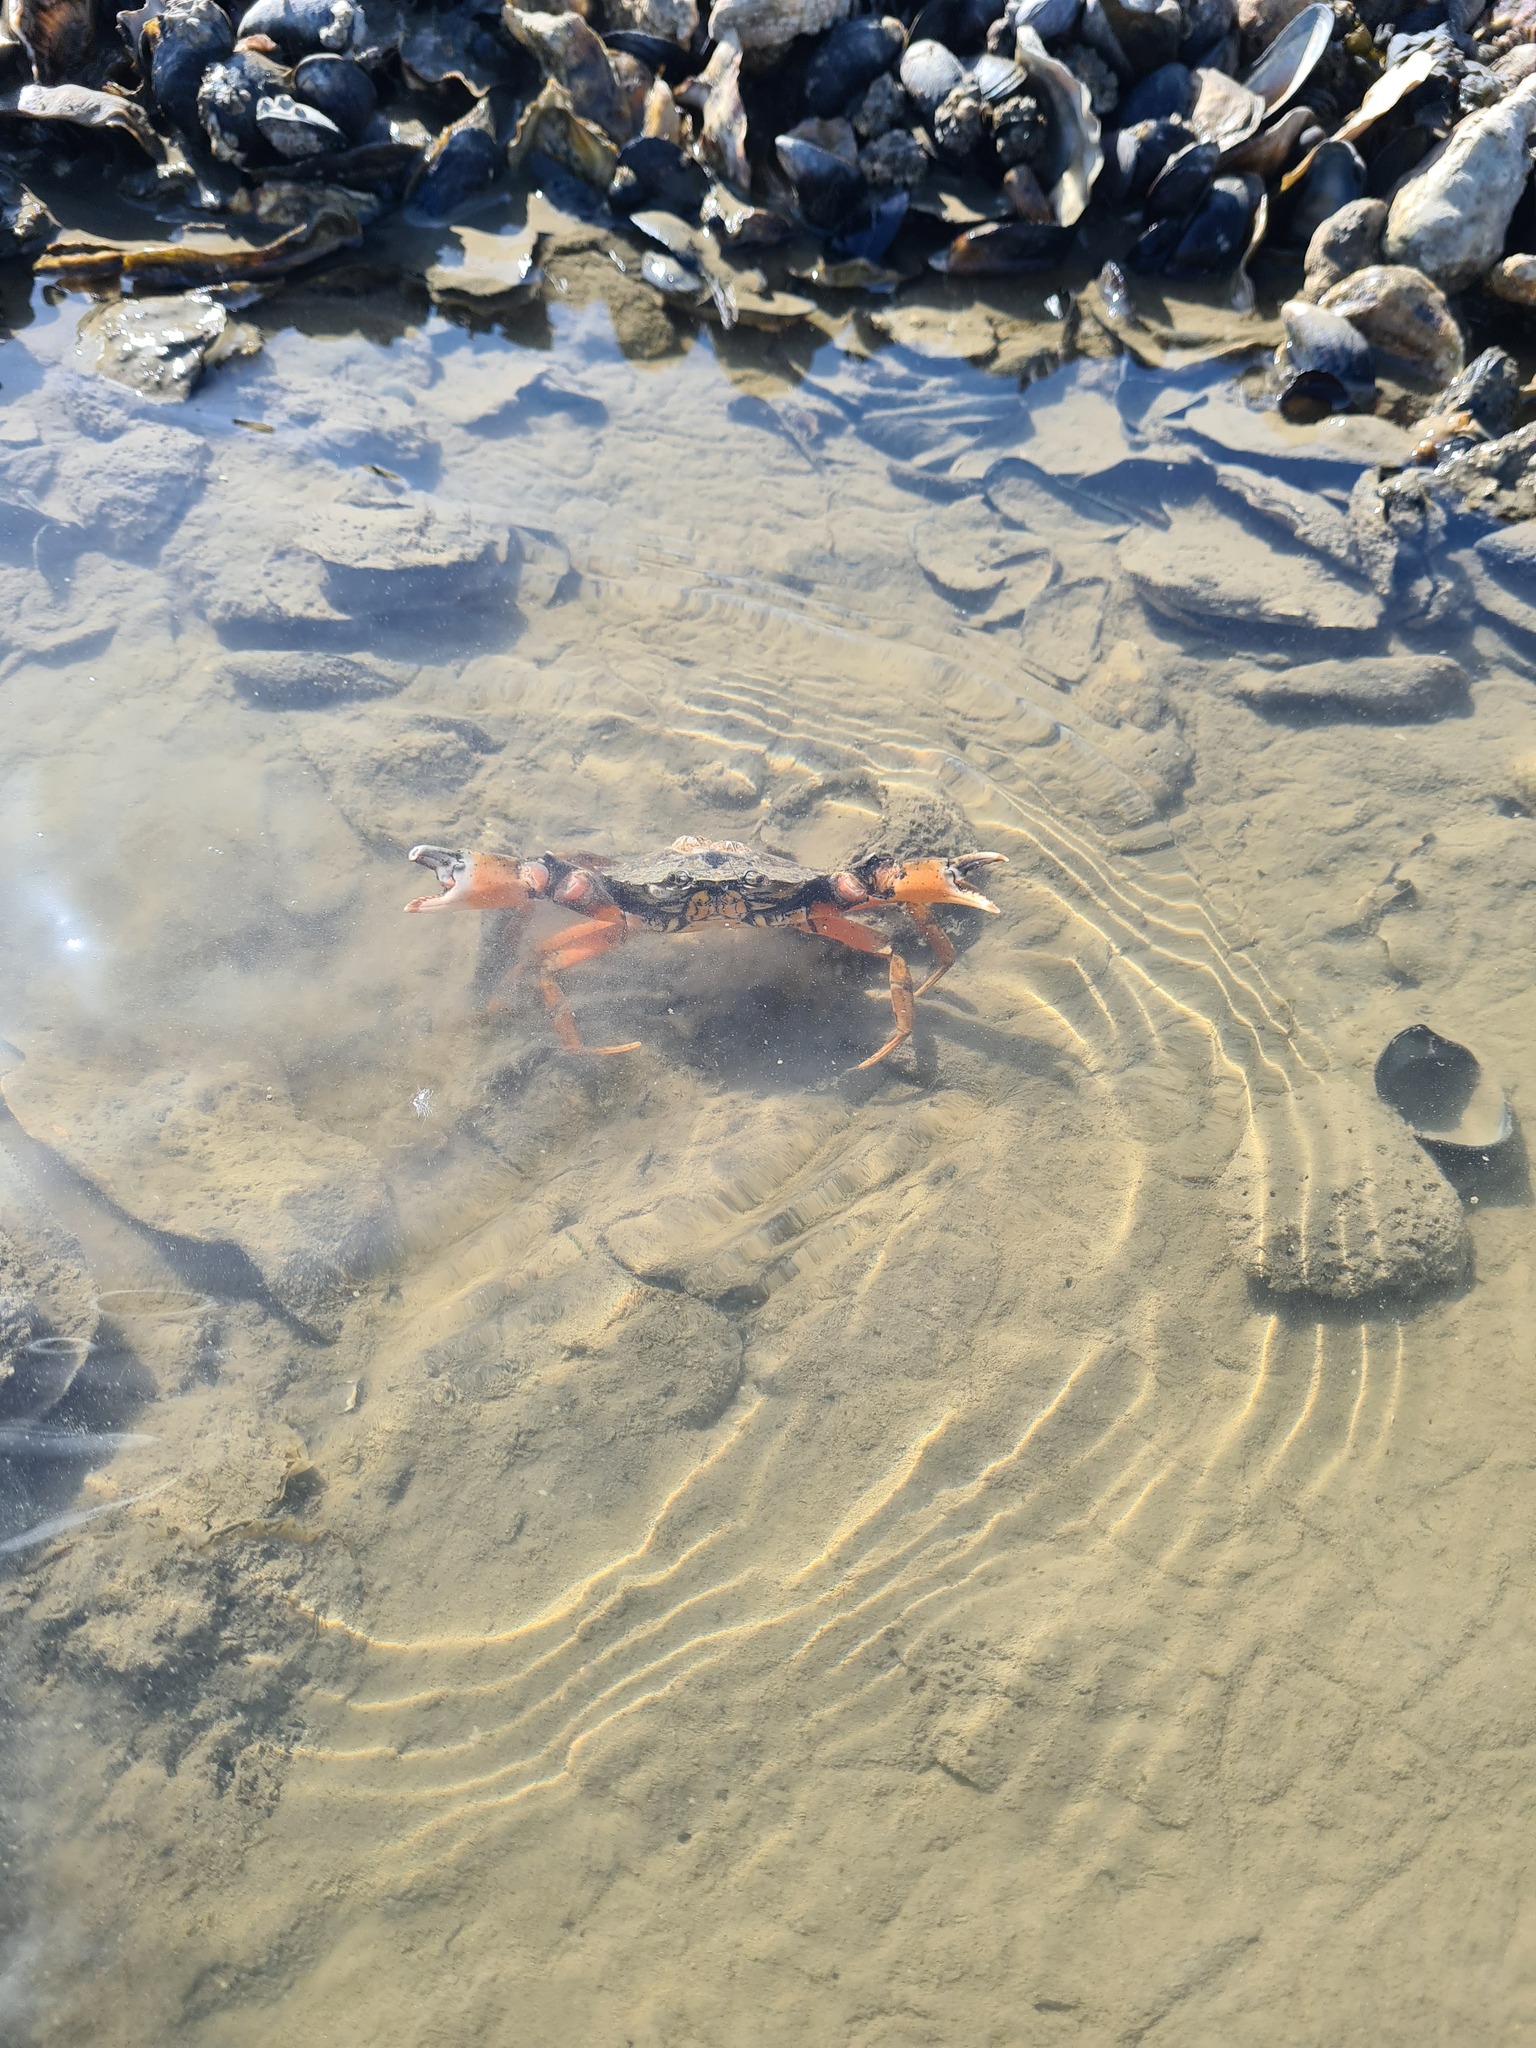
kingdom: Animalia
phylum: Arthropoda
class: Malacostraca
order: Decapoda
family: Carcinidae
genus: Carcinus
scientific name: Carcinus maenas
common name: European green crab
